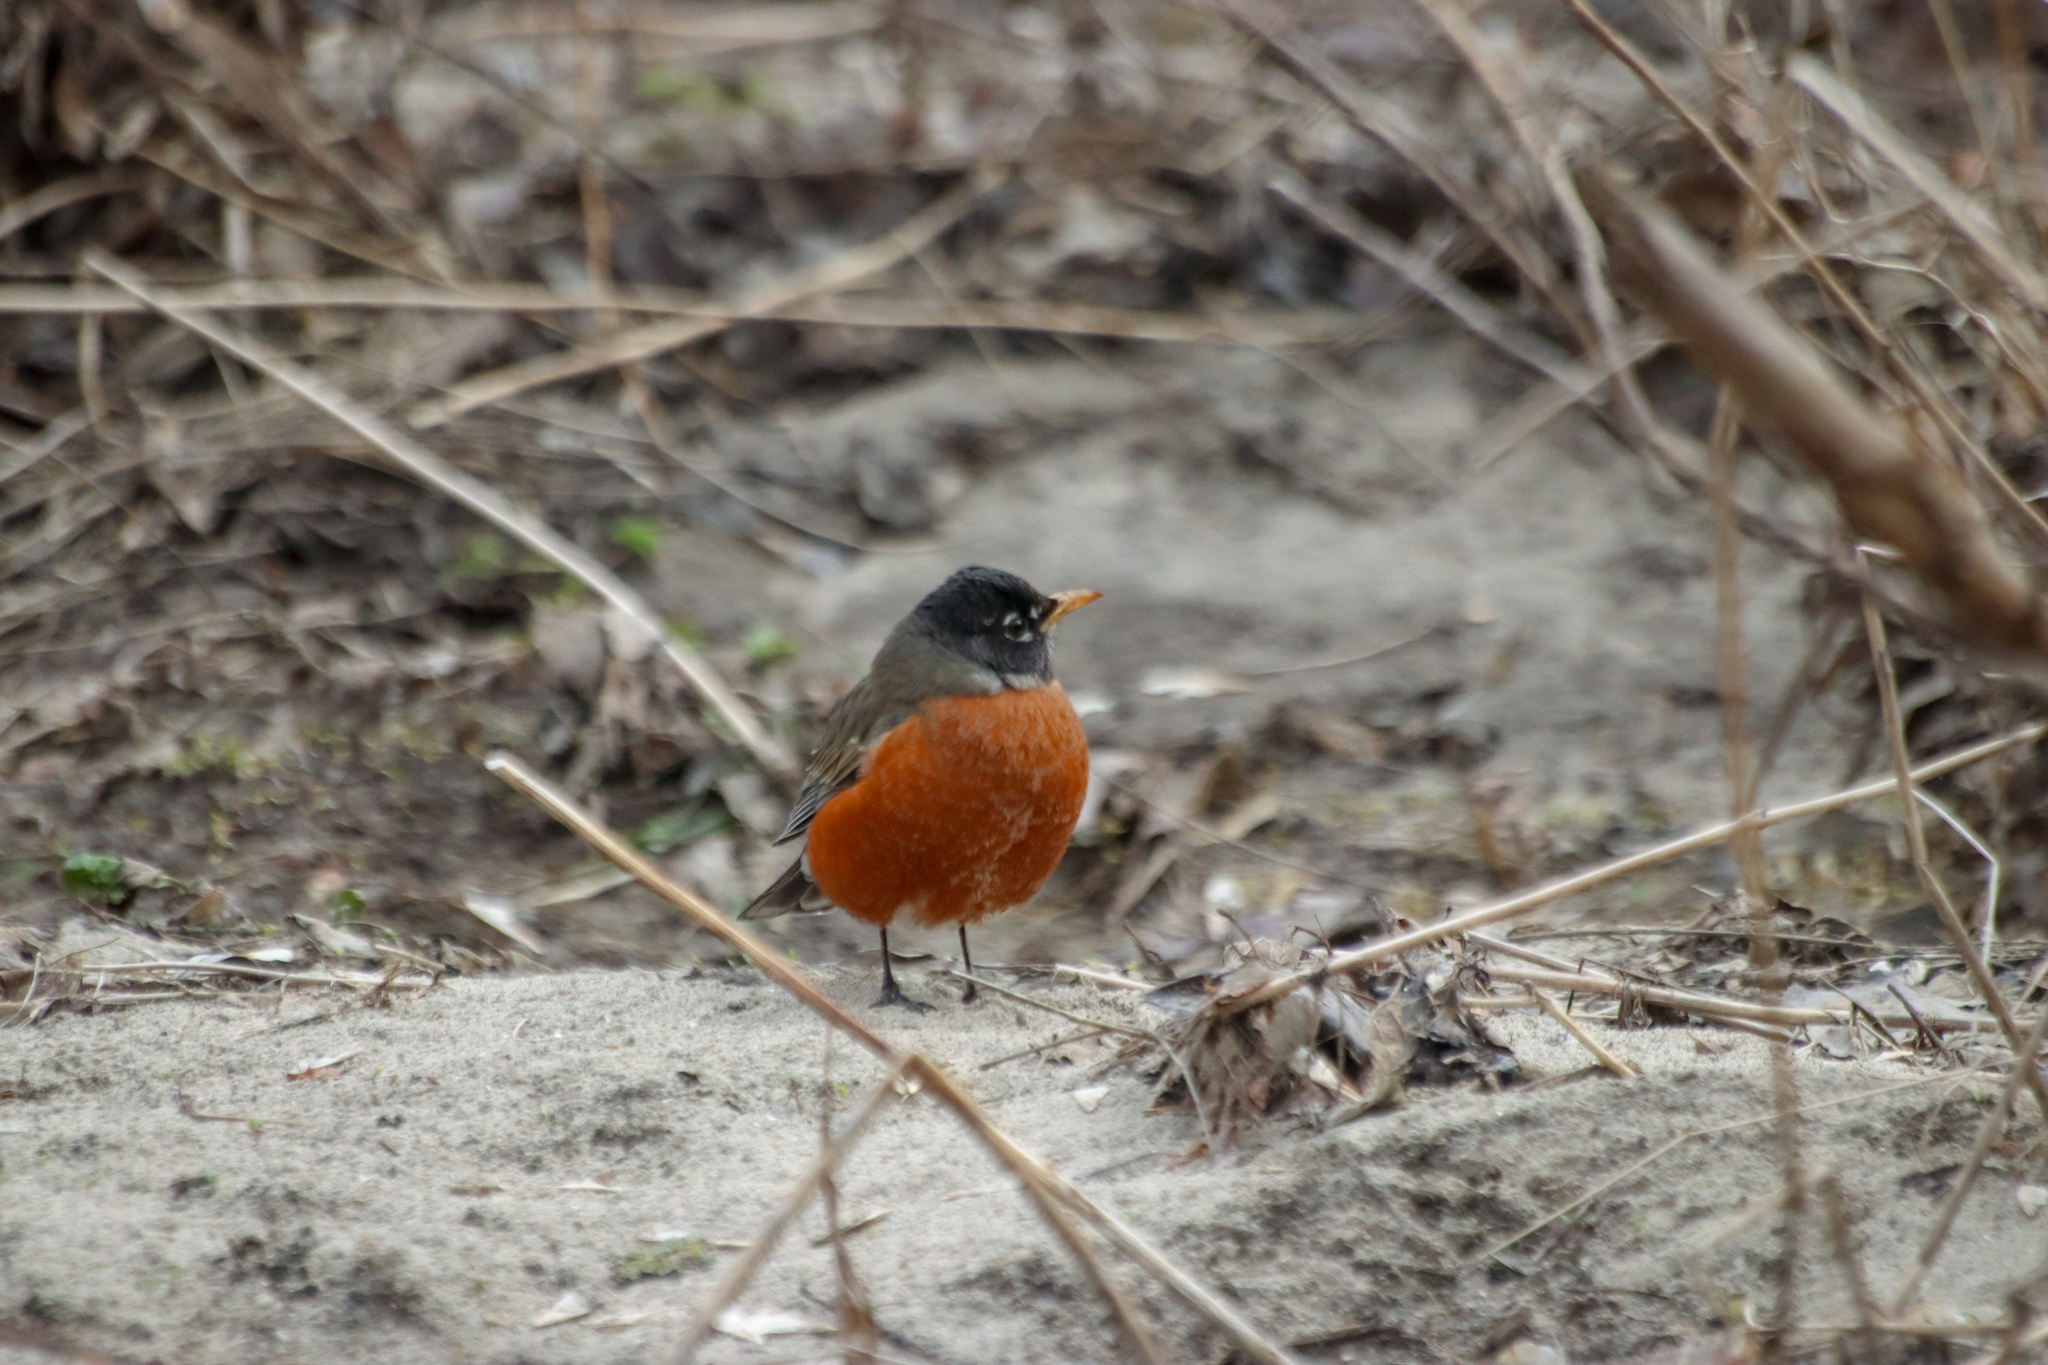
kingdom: Animalia
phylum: Chordata
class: Aves
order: Passeriformes
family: Turdidae
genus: Turdus
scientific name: Turdus migratorius
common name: American robin
